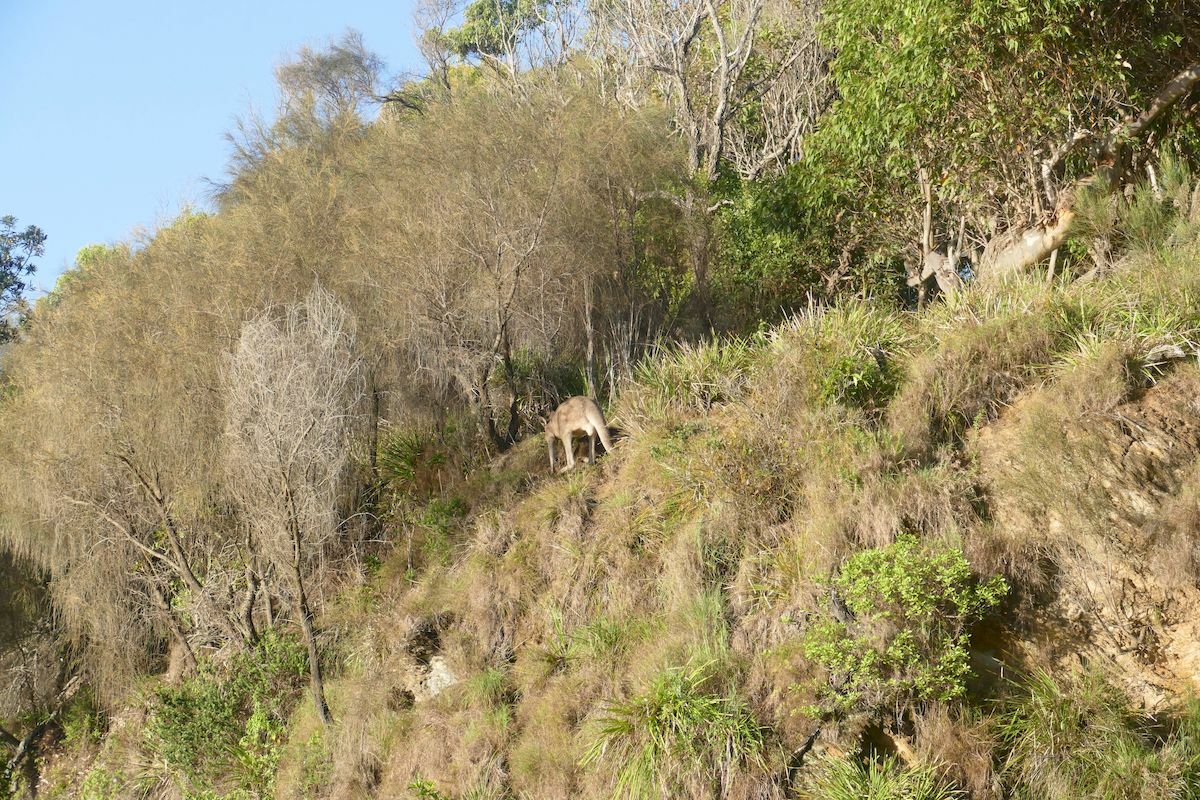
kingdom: Animalia
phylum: Chordata
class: Mammalia
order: Diprotodontia
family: Macropodidae
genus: Macropus
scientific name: Macropus giganteus
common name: Eastern grey kangaroo
